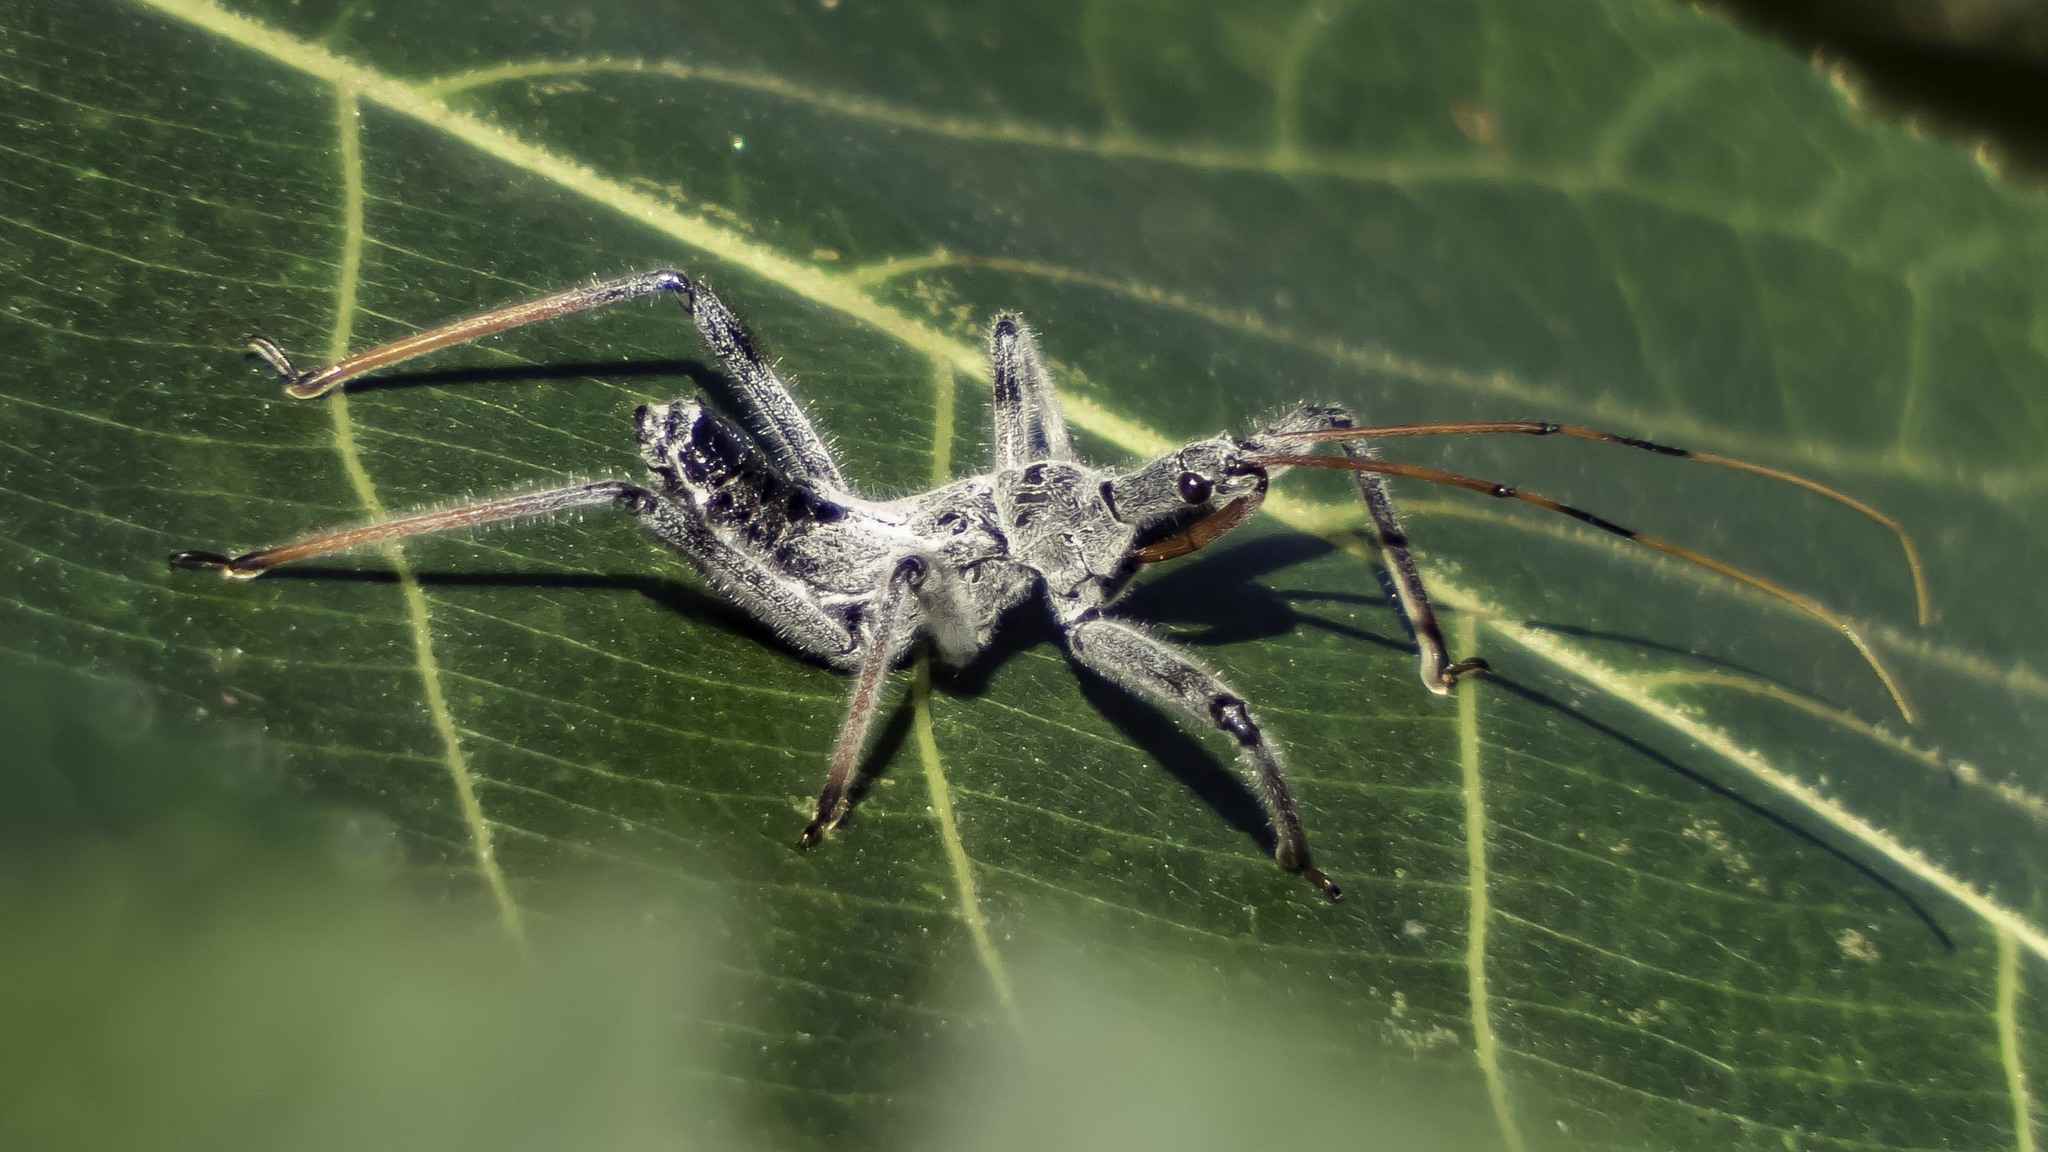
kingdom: Animalia
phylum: Arthropoda
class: Insecta
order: Hemiptera
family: Reduviidae
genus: Arilus
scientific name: Arilus cristatus
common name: North american wheel bug
